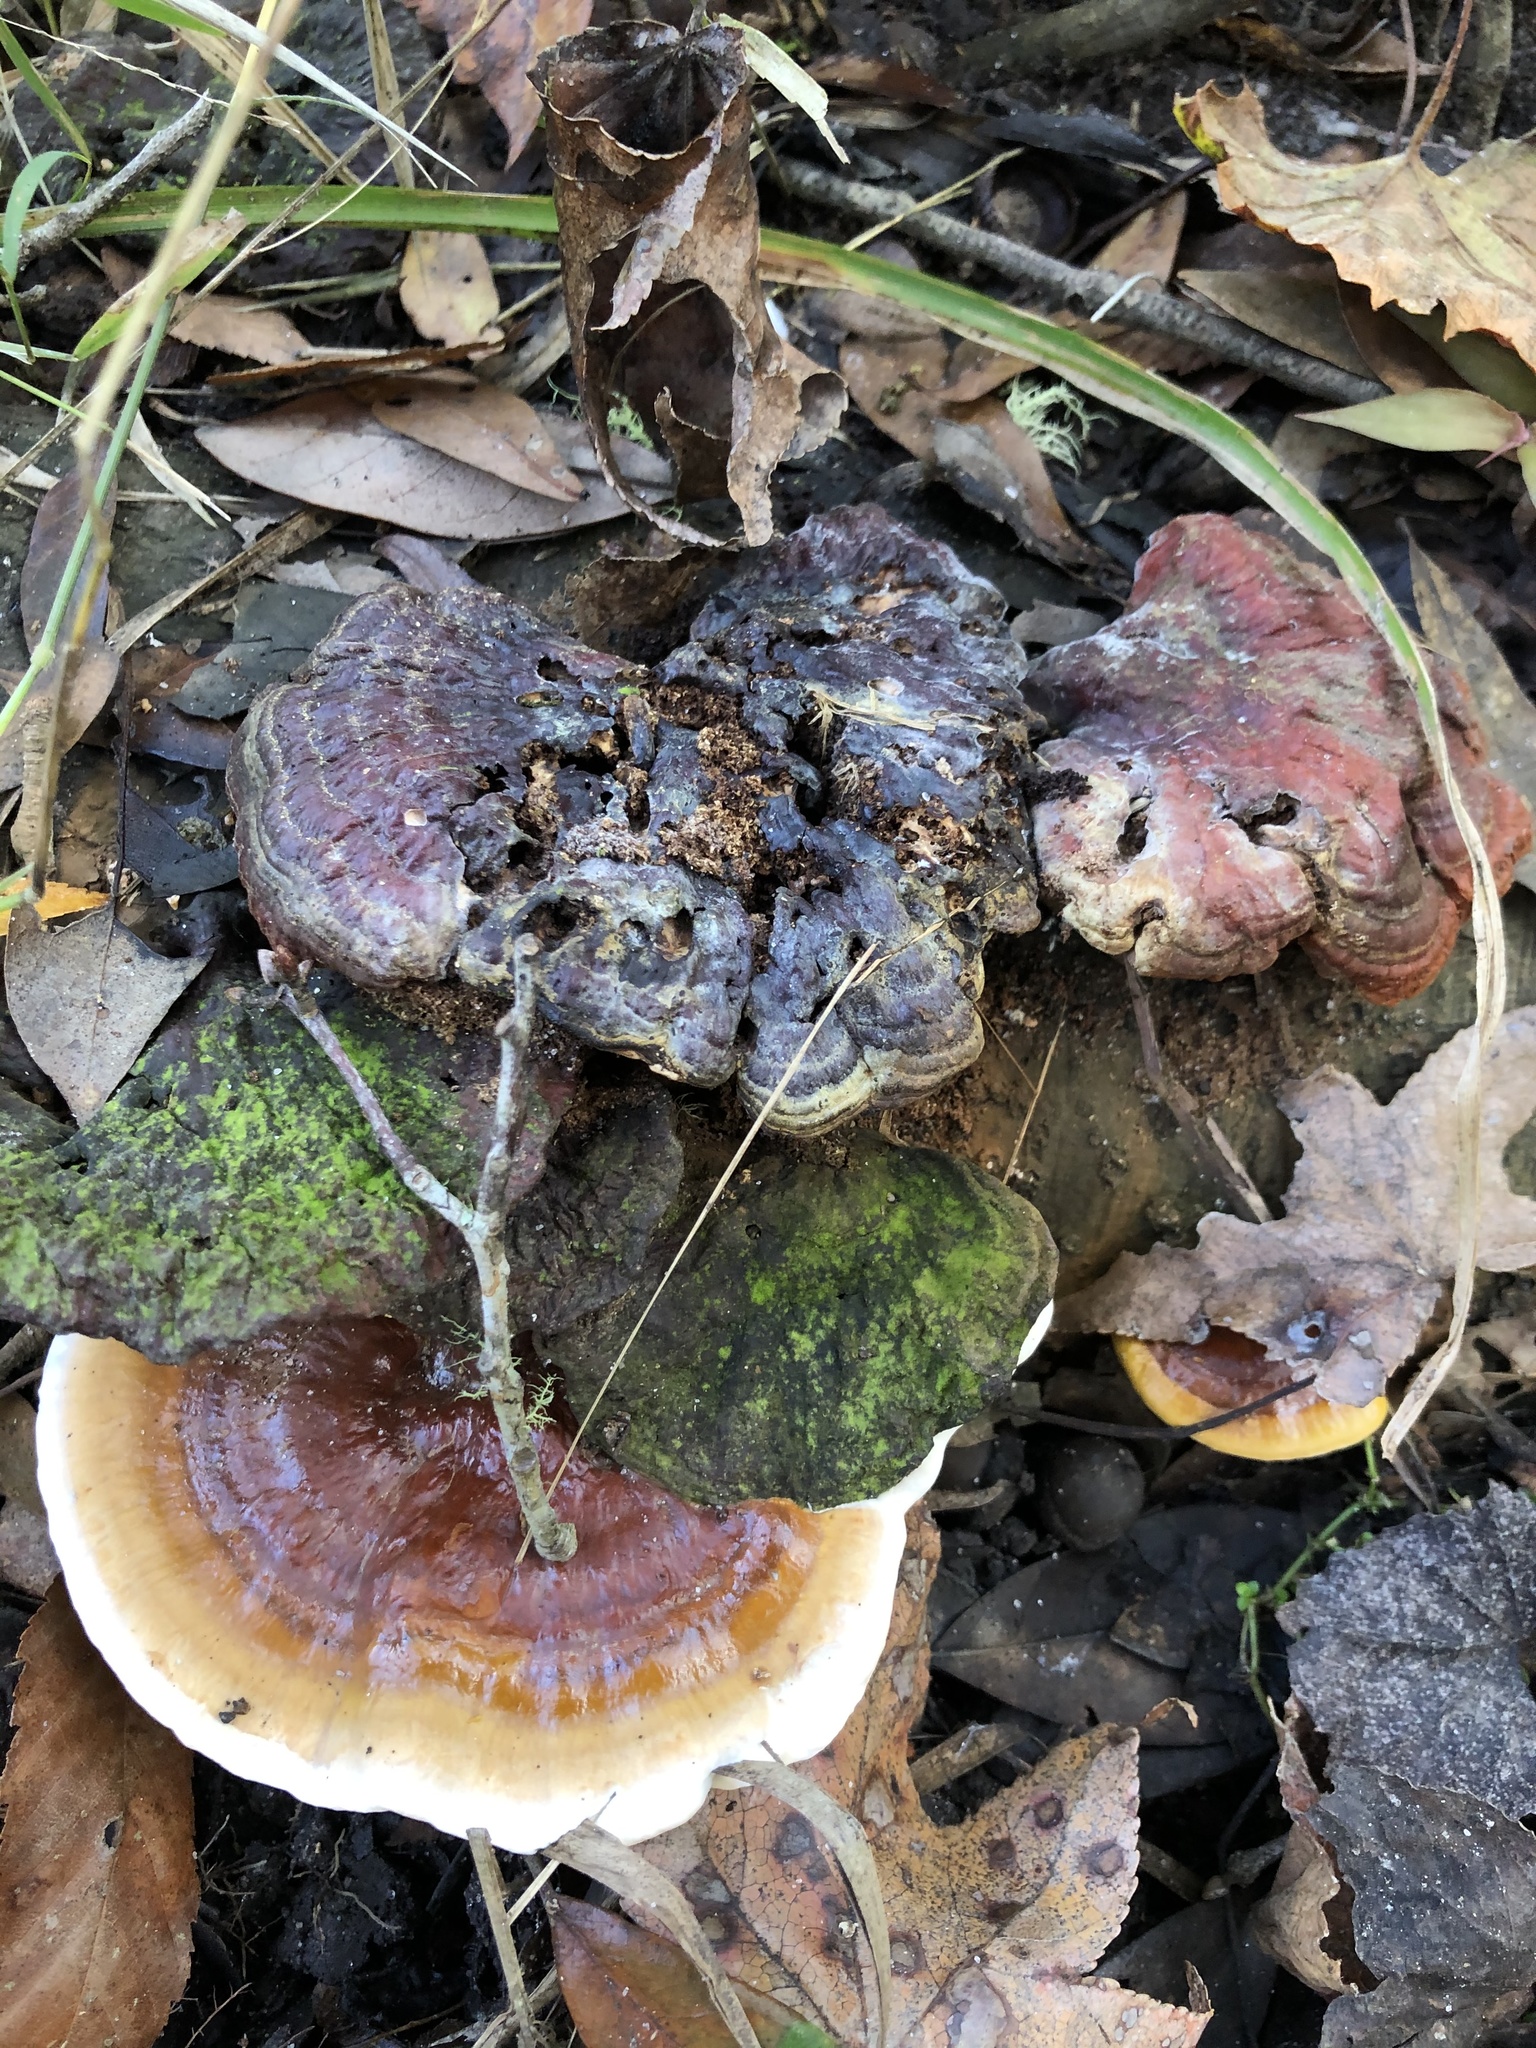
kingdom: Fungi
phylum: Basidiomycota
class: Agaricomycetes
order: Polyporales
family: Polyporaceae
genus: Ganoderma
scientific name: Ganoderma curtisii
